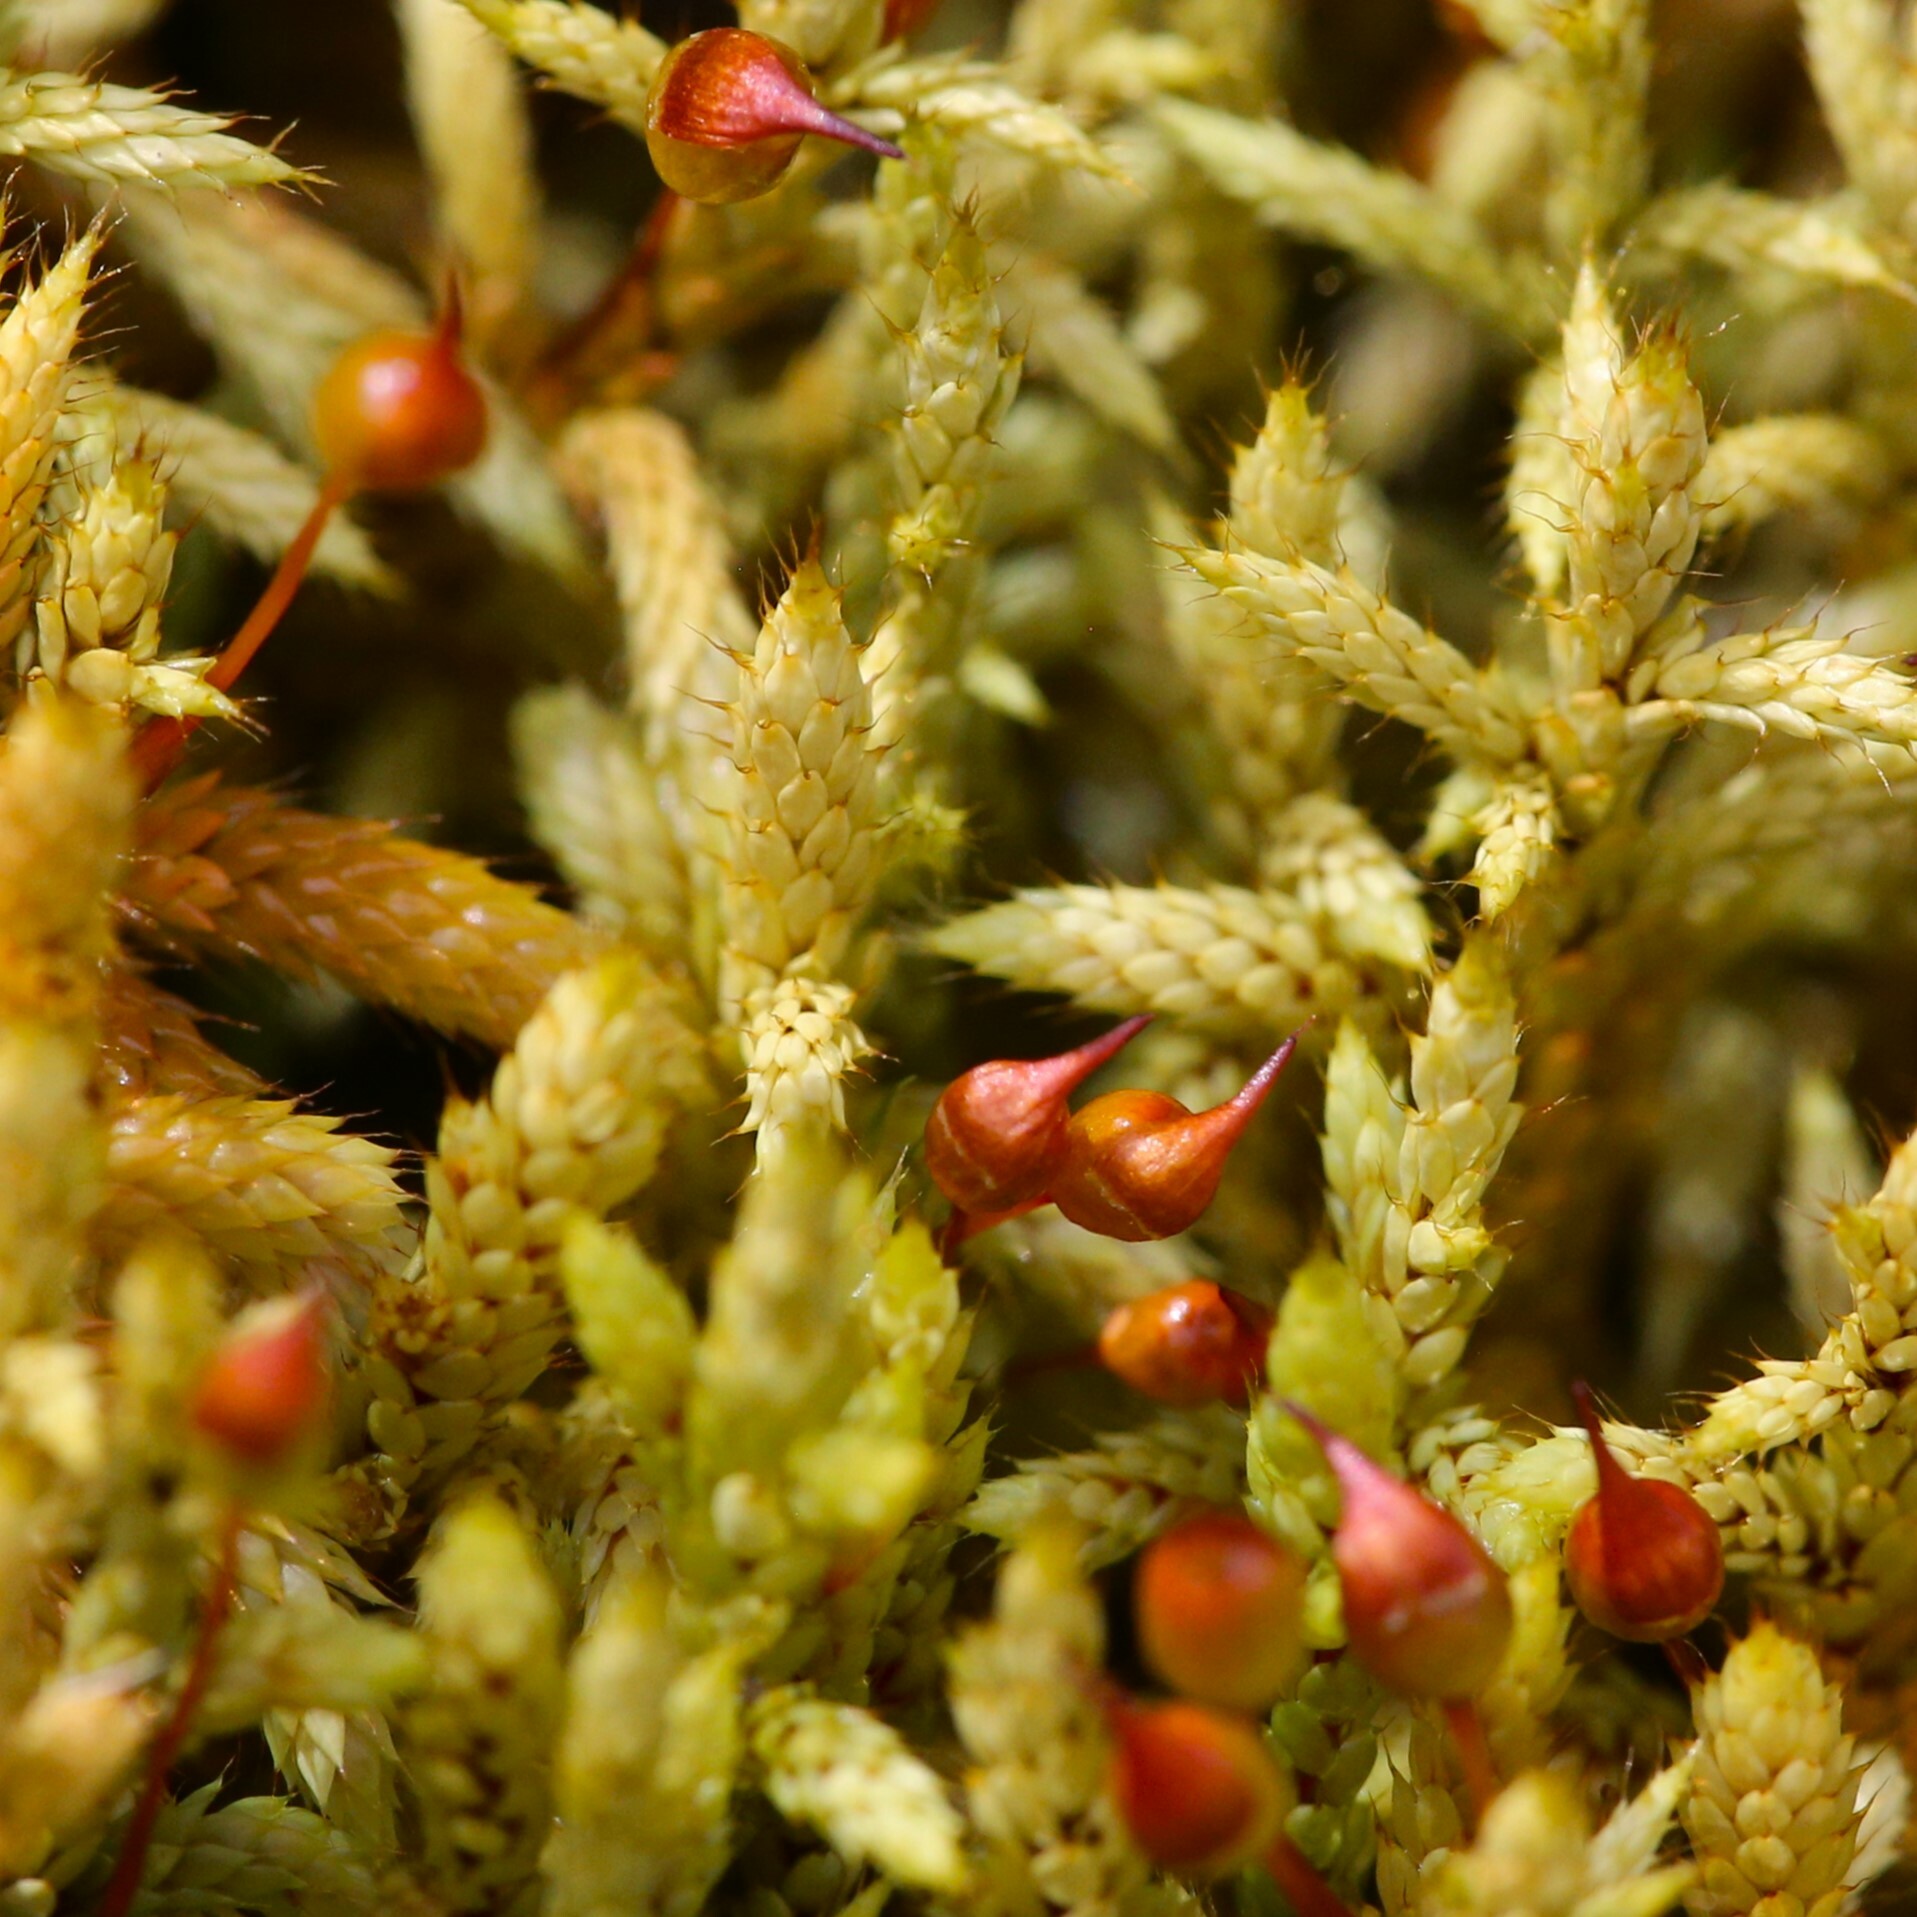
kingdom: Plantae
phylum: Bryophyta
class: Bryopsida
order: Hedwigiales
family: Hedwigiaceae
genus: Rhacocarpus
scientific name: Rhacocarpus purpurascens
